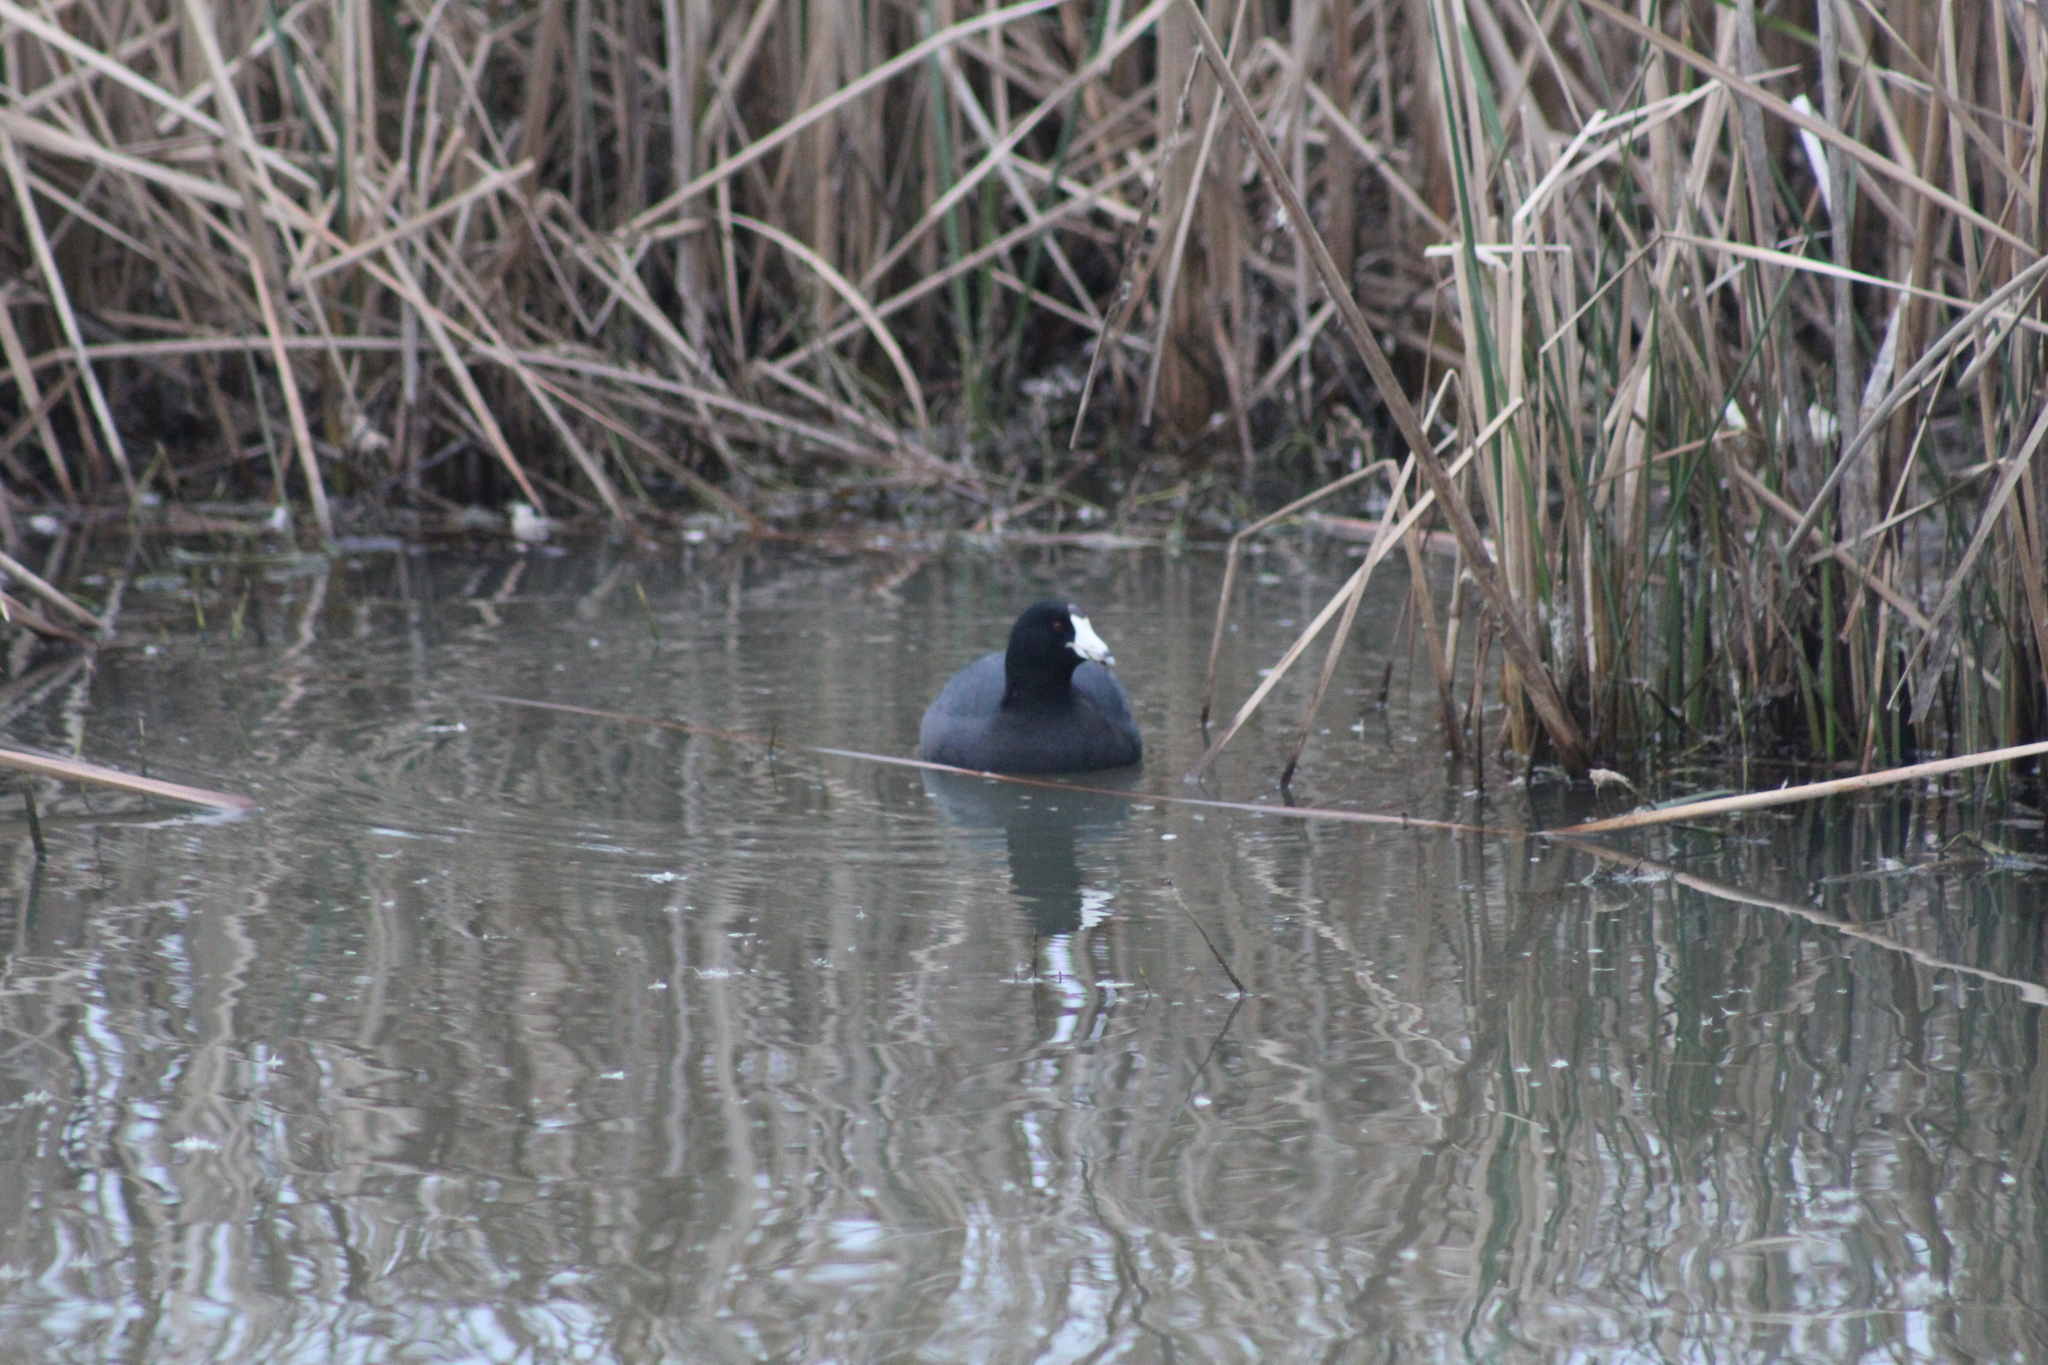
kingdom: Animalia
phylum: Chordata
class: Aves
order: Gruiformes
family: Rallidae
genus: Fulica
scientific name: Fulica americana
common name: American coot
